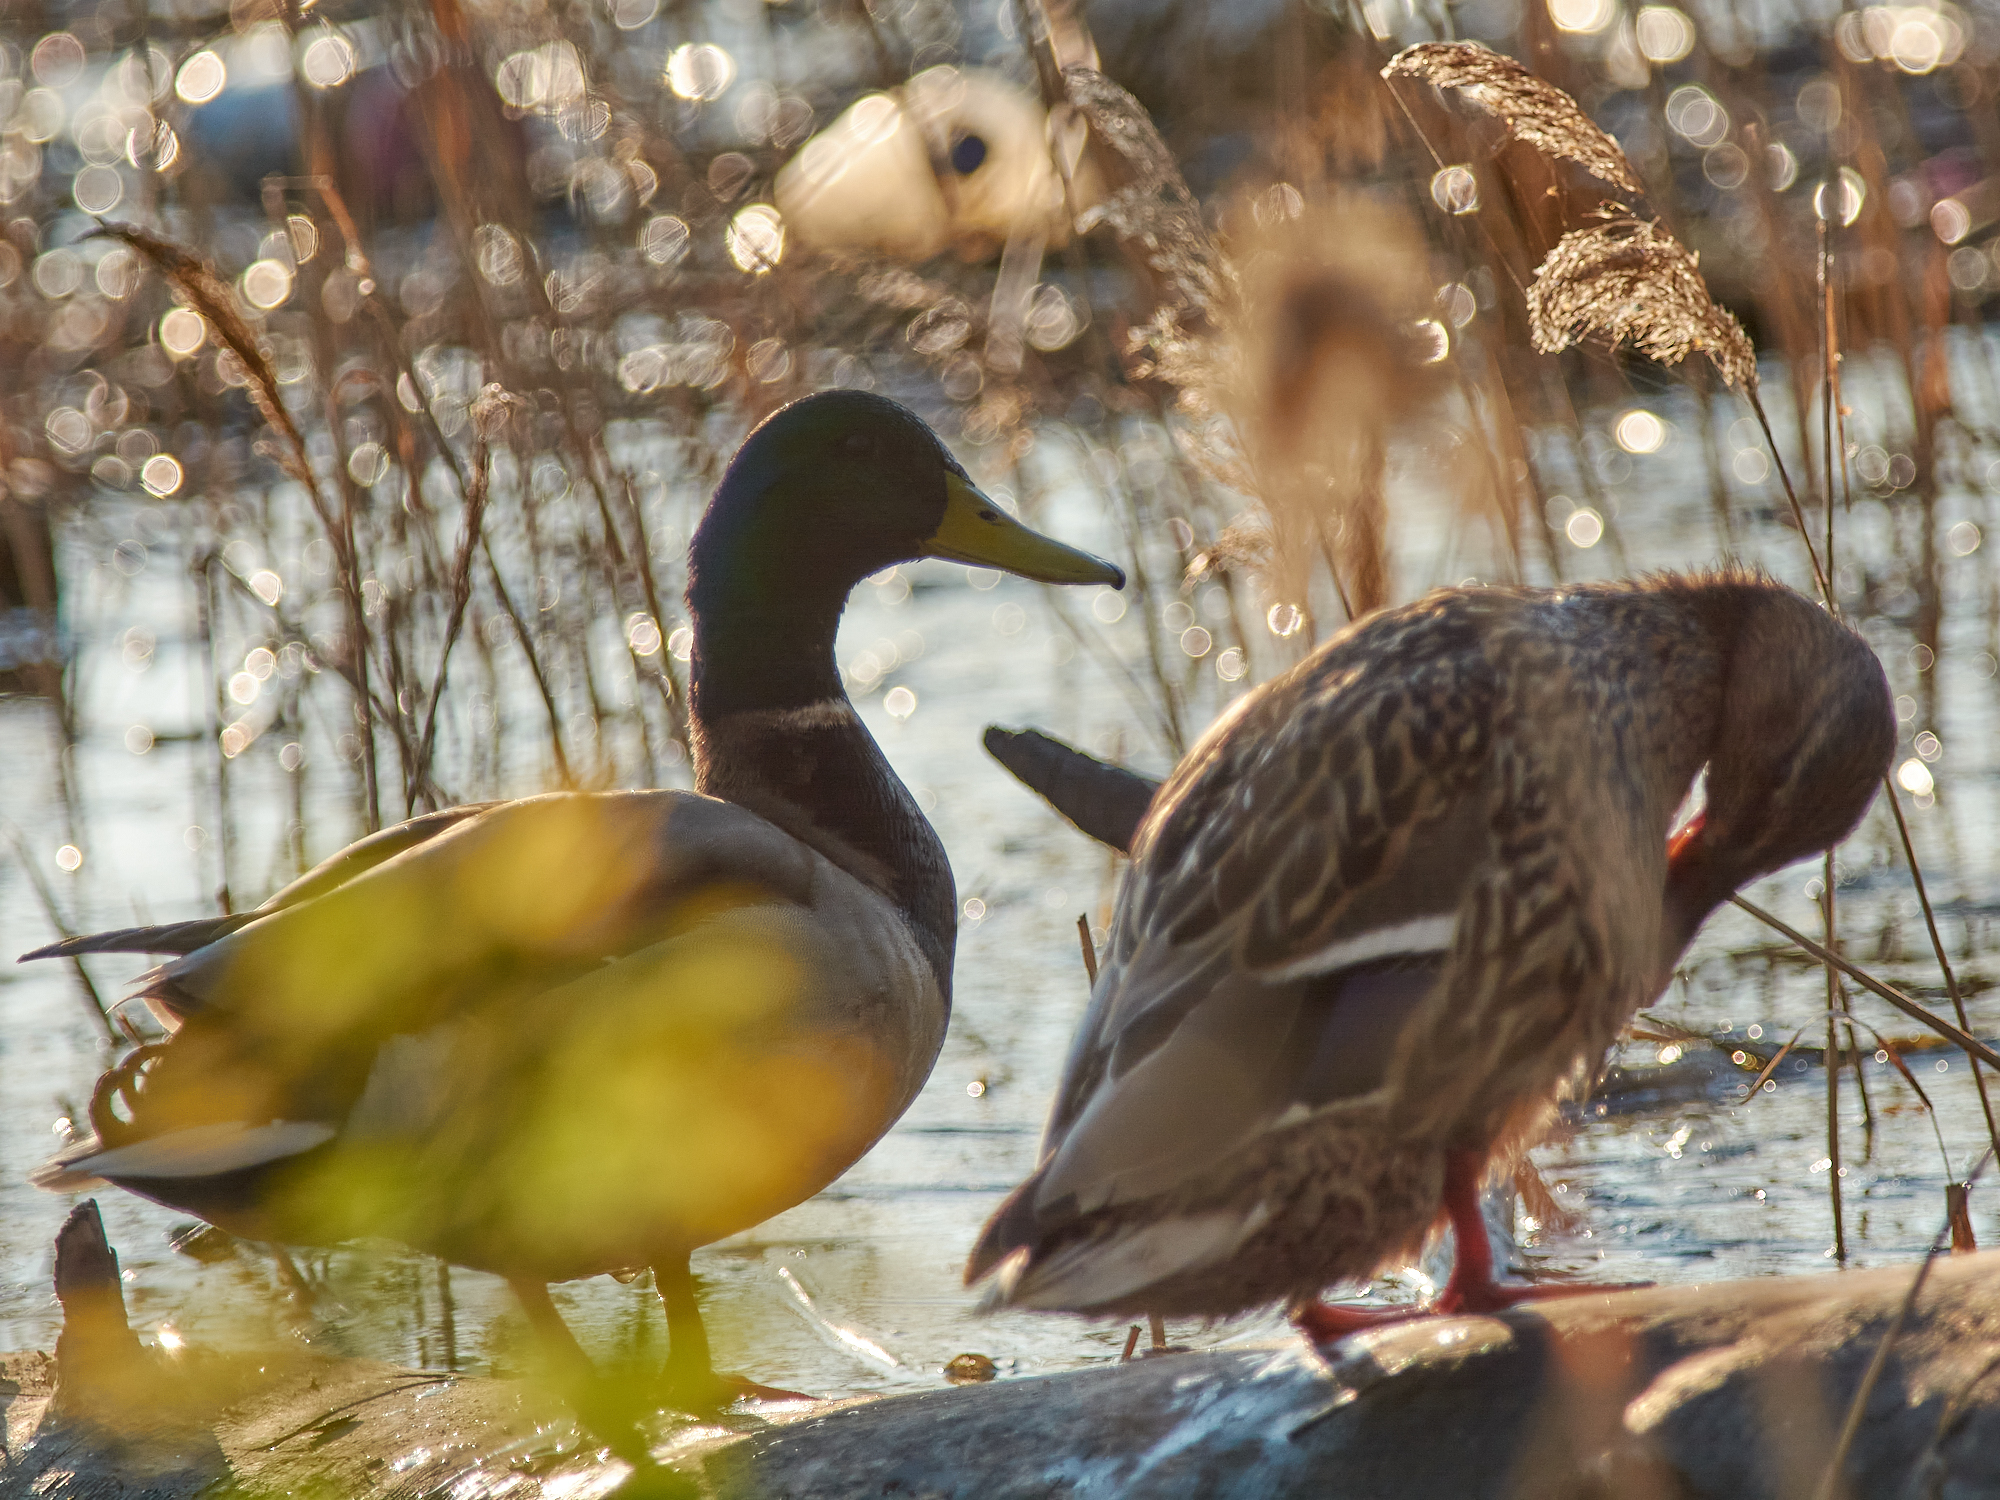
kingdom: Animalia
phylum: Chordata
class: Aves
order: Anseriformes
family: Anatidae
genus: Anas
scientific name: Anas platyrhynchos
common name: Mallard
